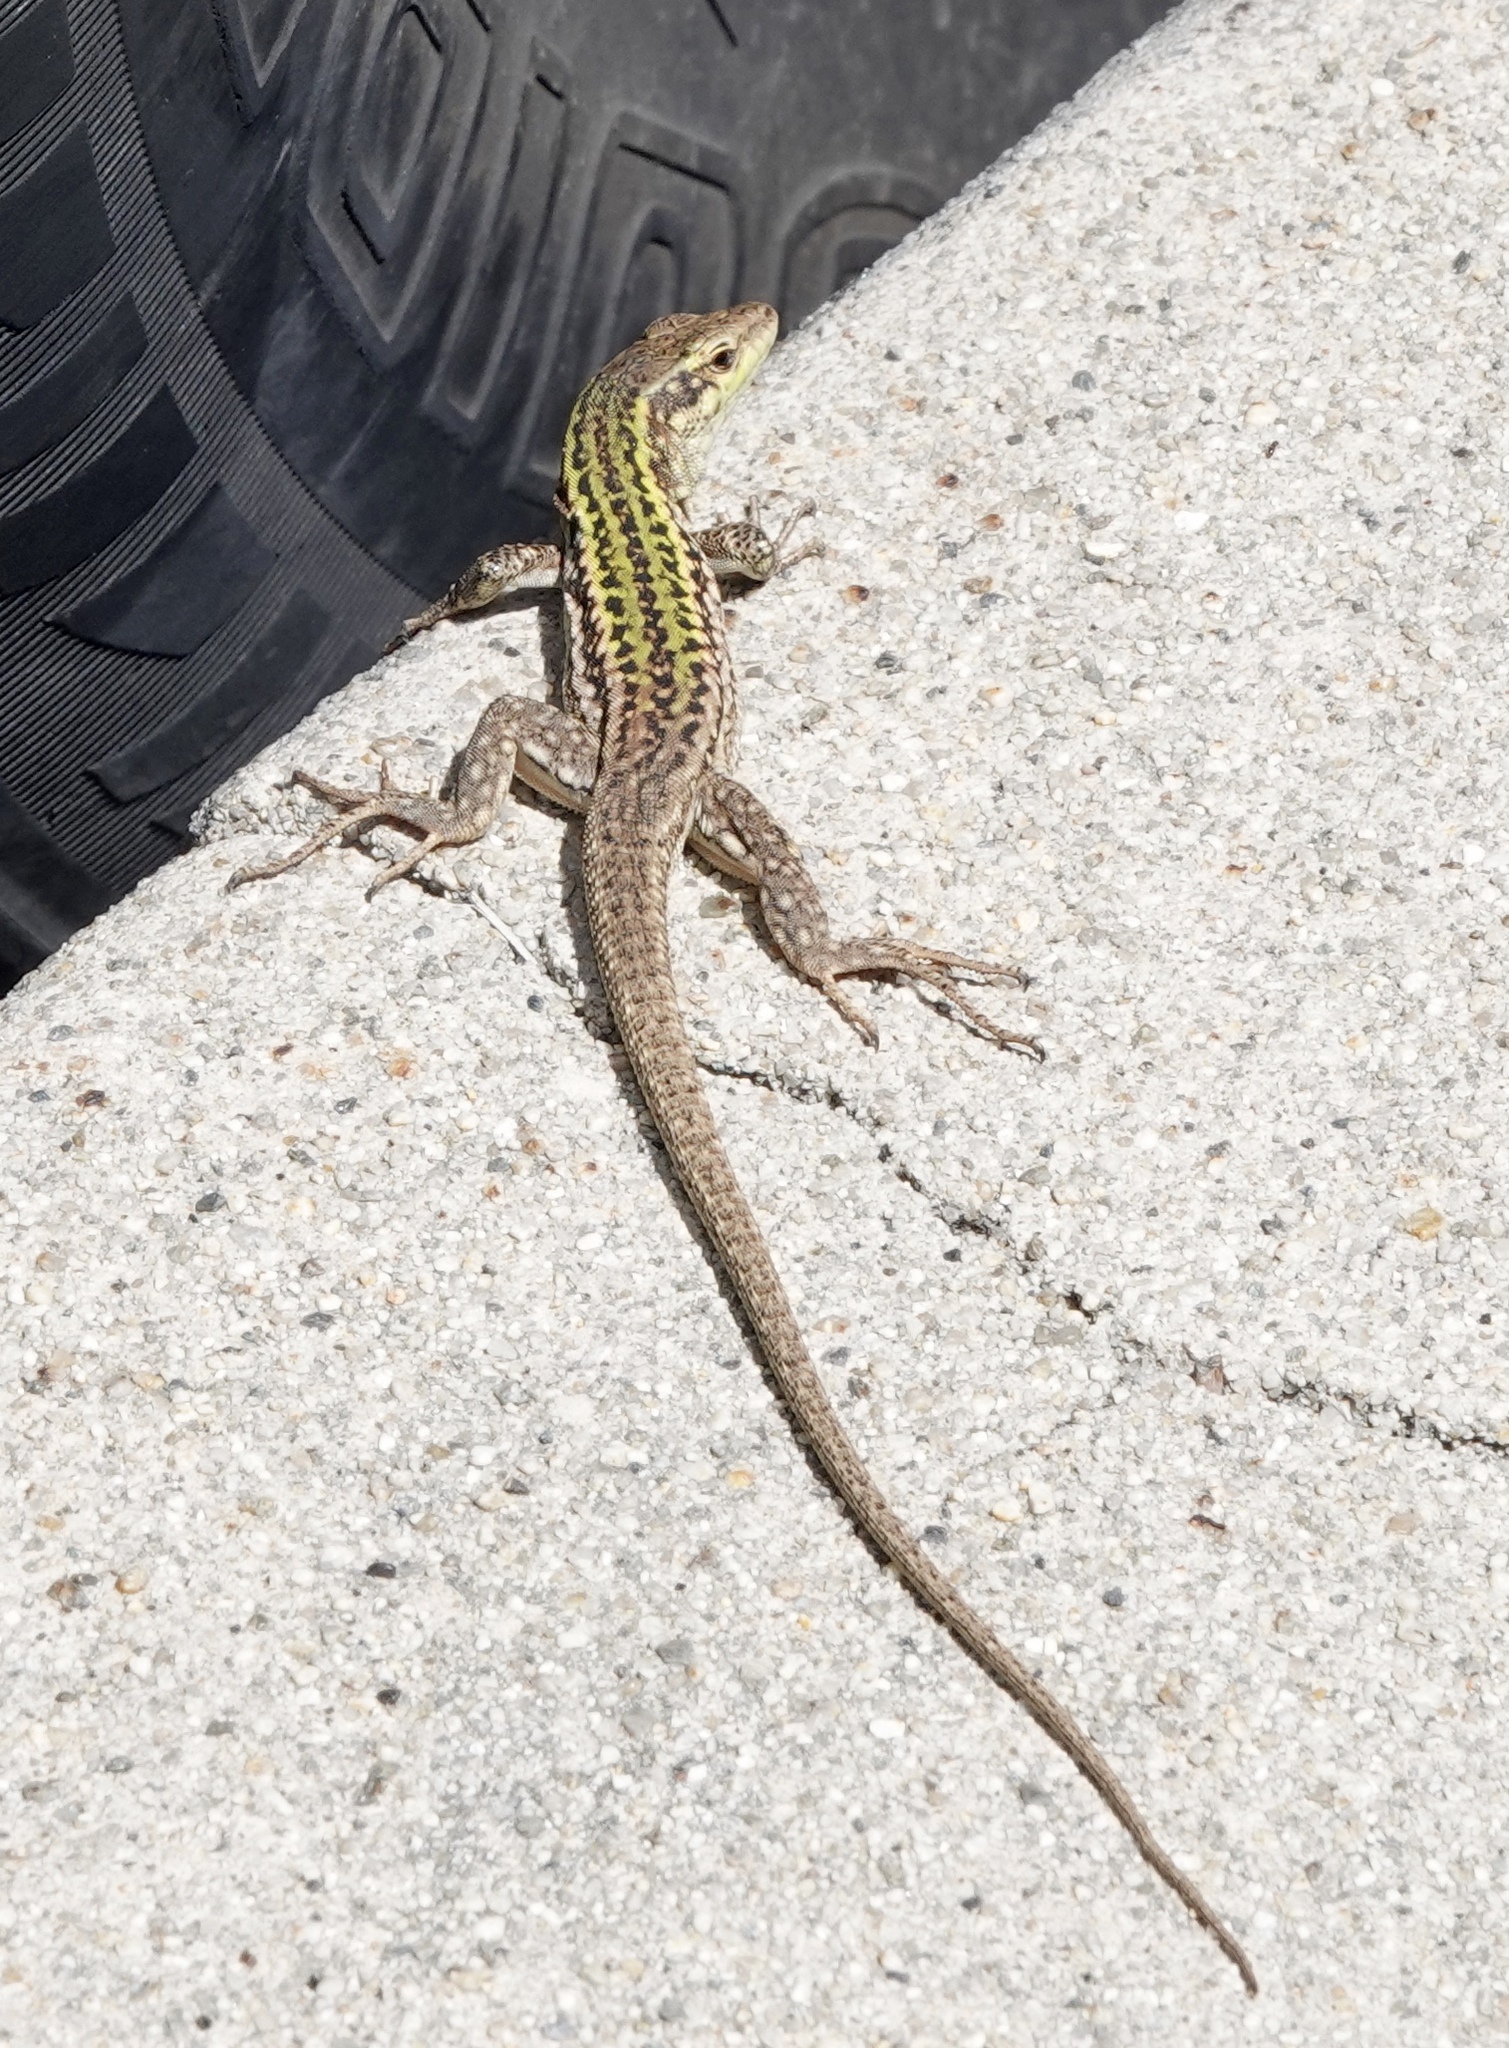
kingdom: Animalia
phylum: Chordata
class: Squamata
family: Lacertidae
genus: Podarcis
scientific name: Podarcis siculus
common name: Italian wall lizard
